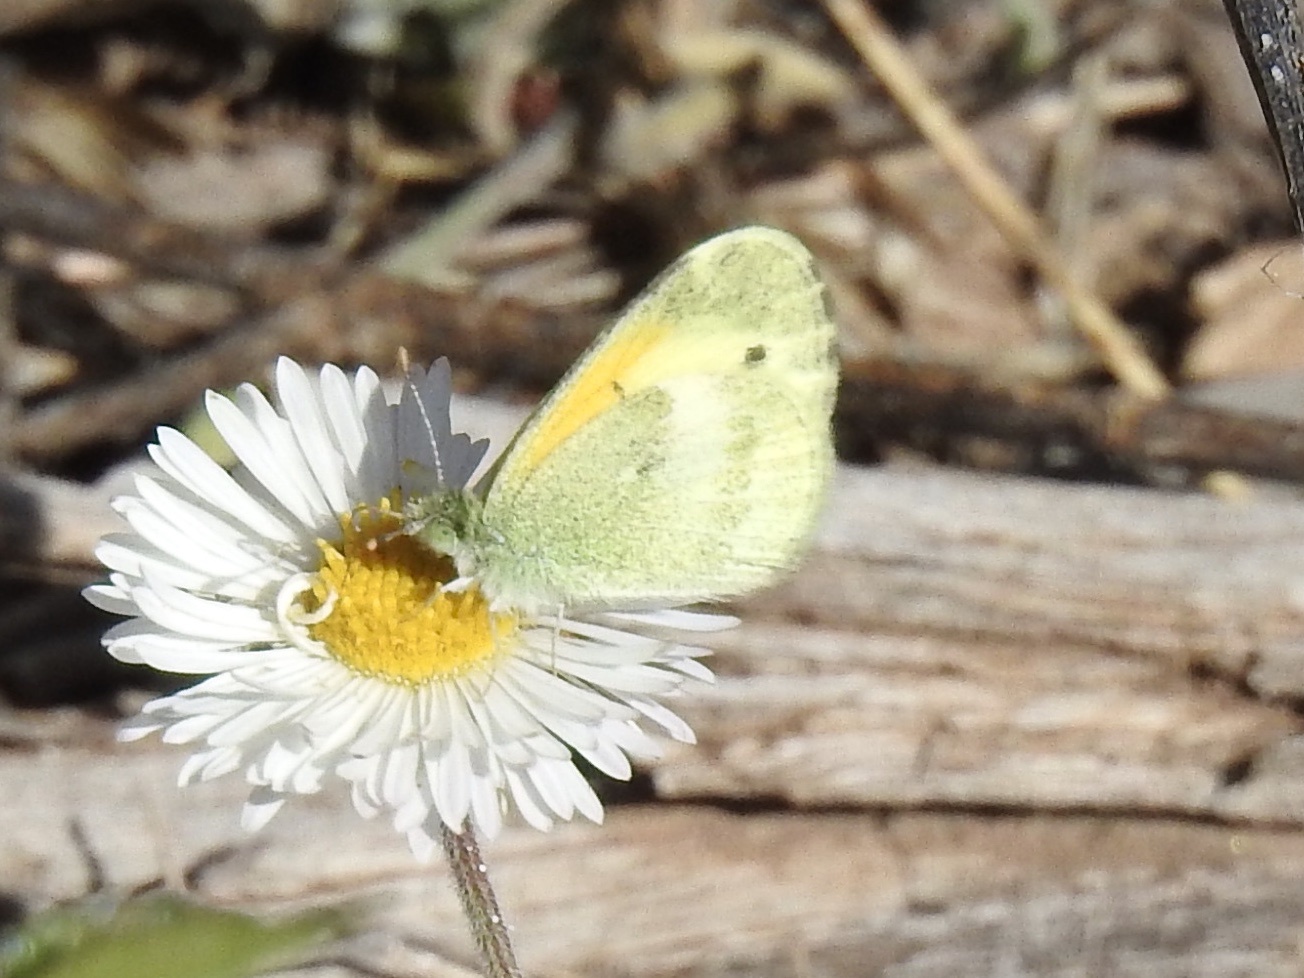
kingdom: Animalia
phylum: Arthropoda
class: Insecta
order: Lepidoptera
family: Pieridae
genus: Nathalis
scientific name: Nathalis iole
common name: Dainty sulphur
